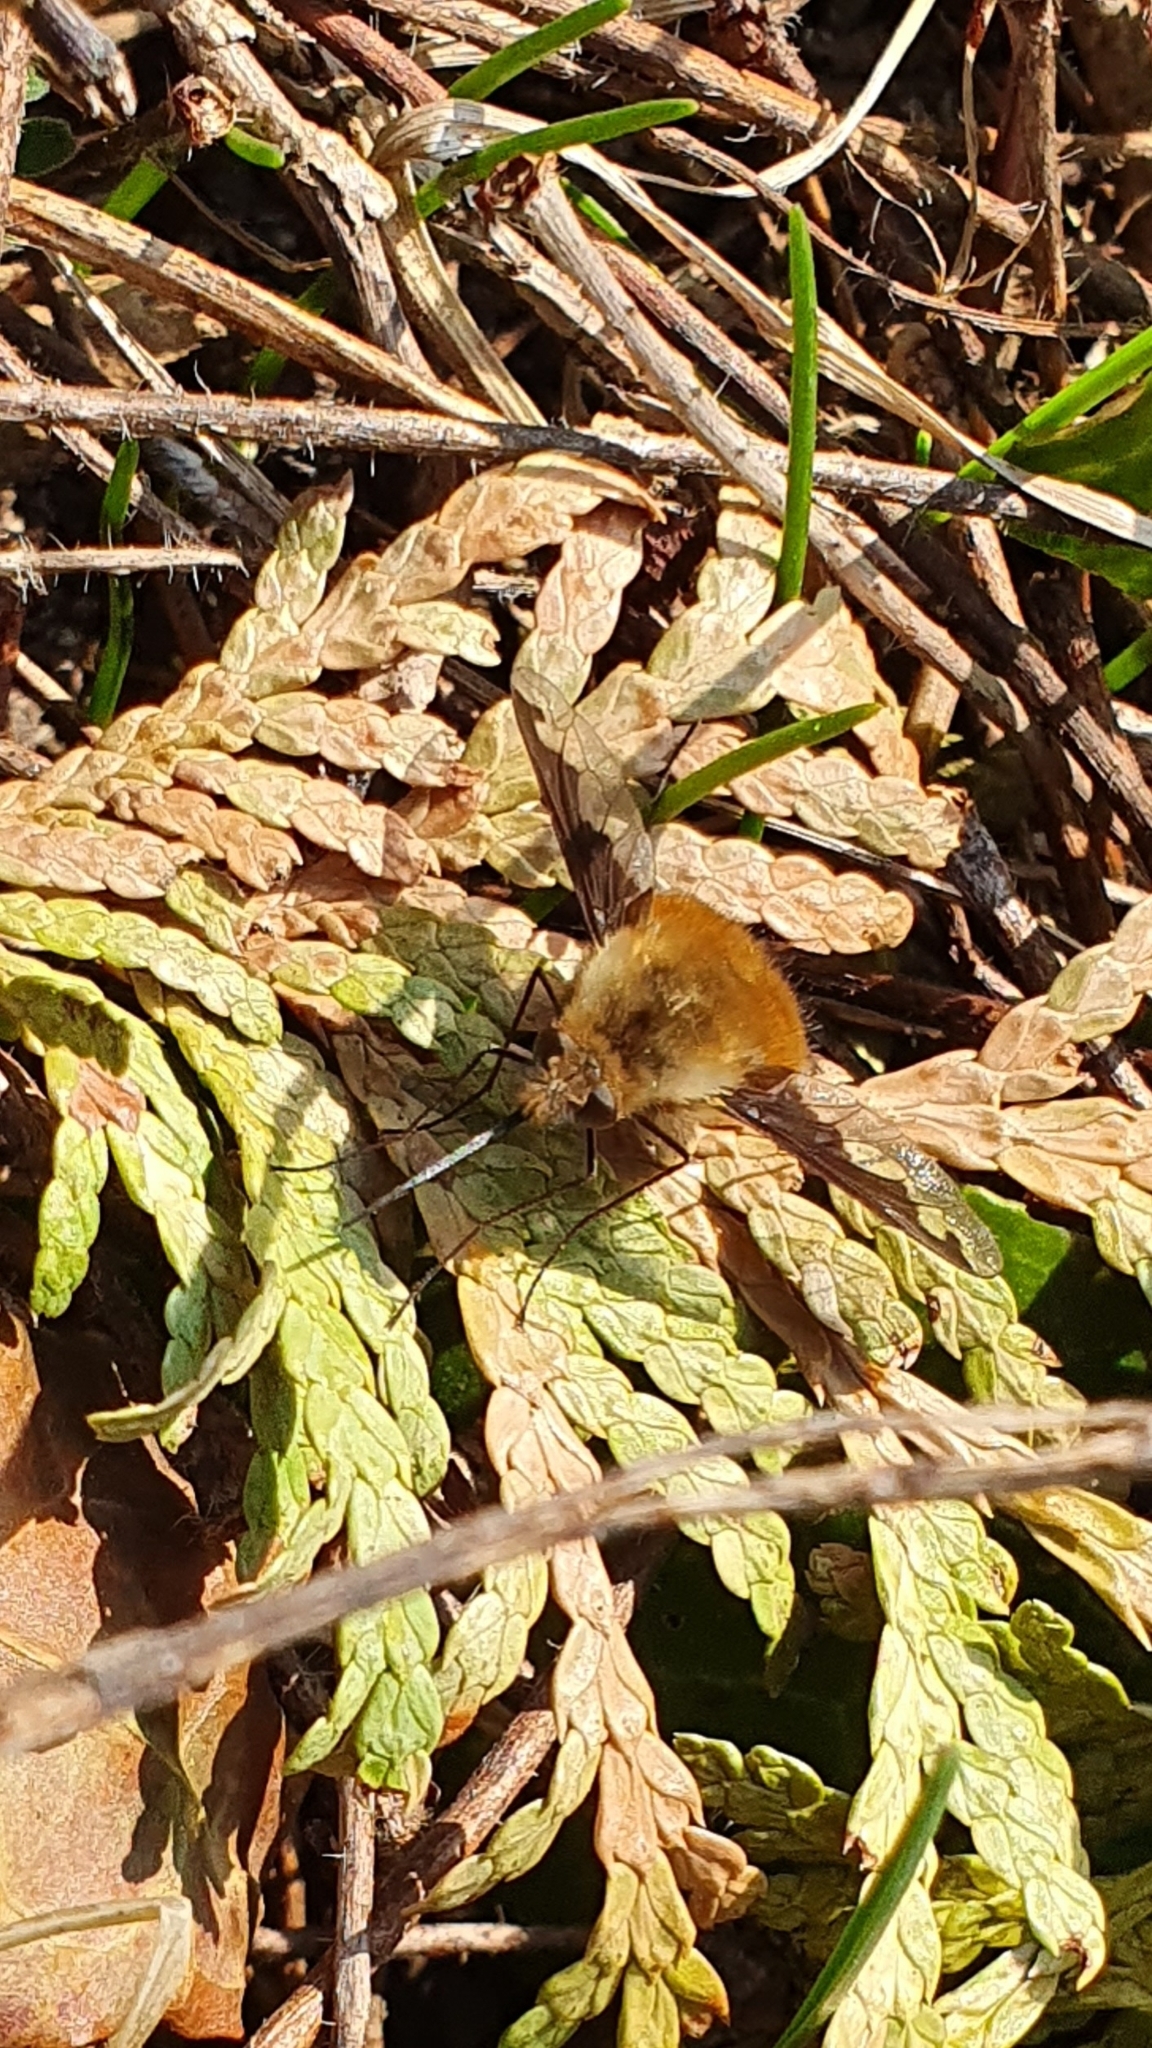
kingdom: Animalia
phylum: Arthropoda
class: Insecta
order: Diptera
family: Bombyliidae
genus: Bombylius
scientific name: Bombylius major
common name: Bee fly
